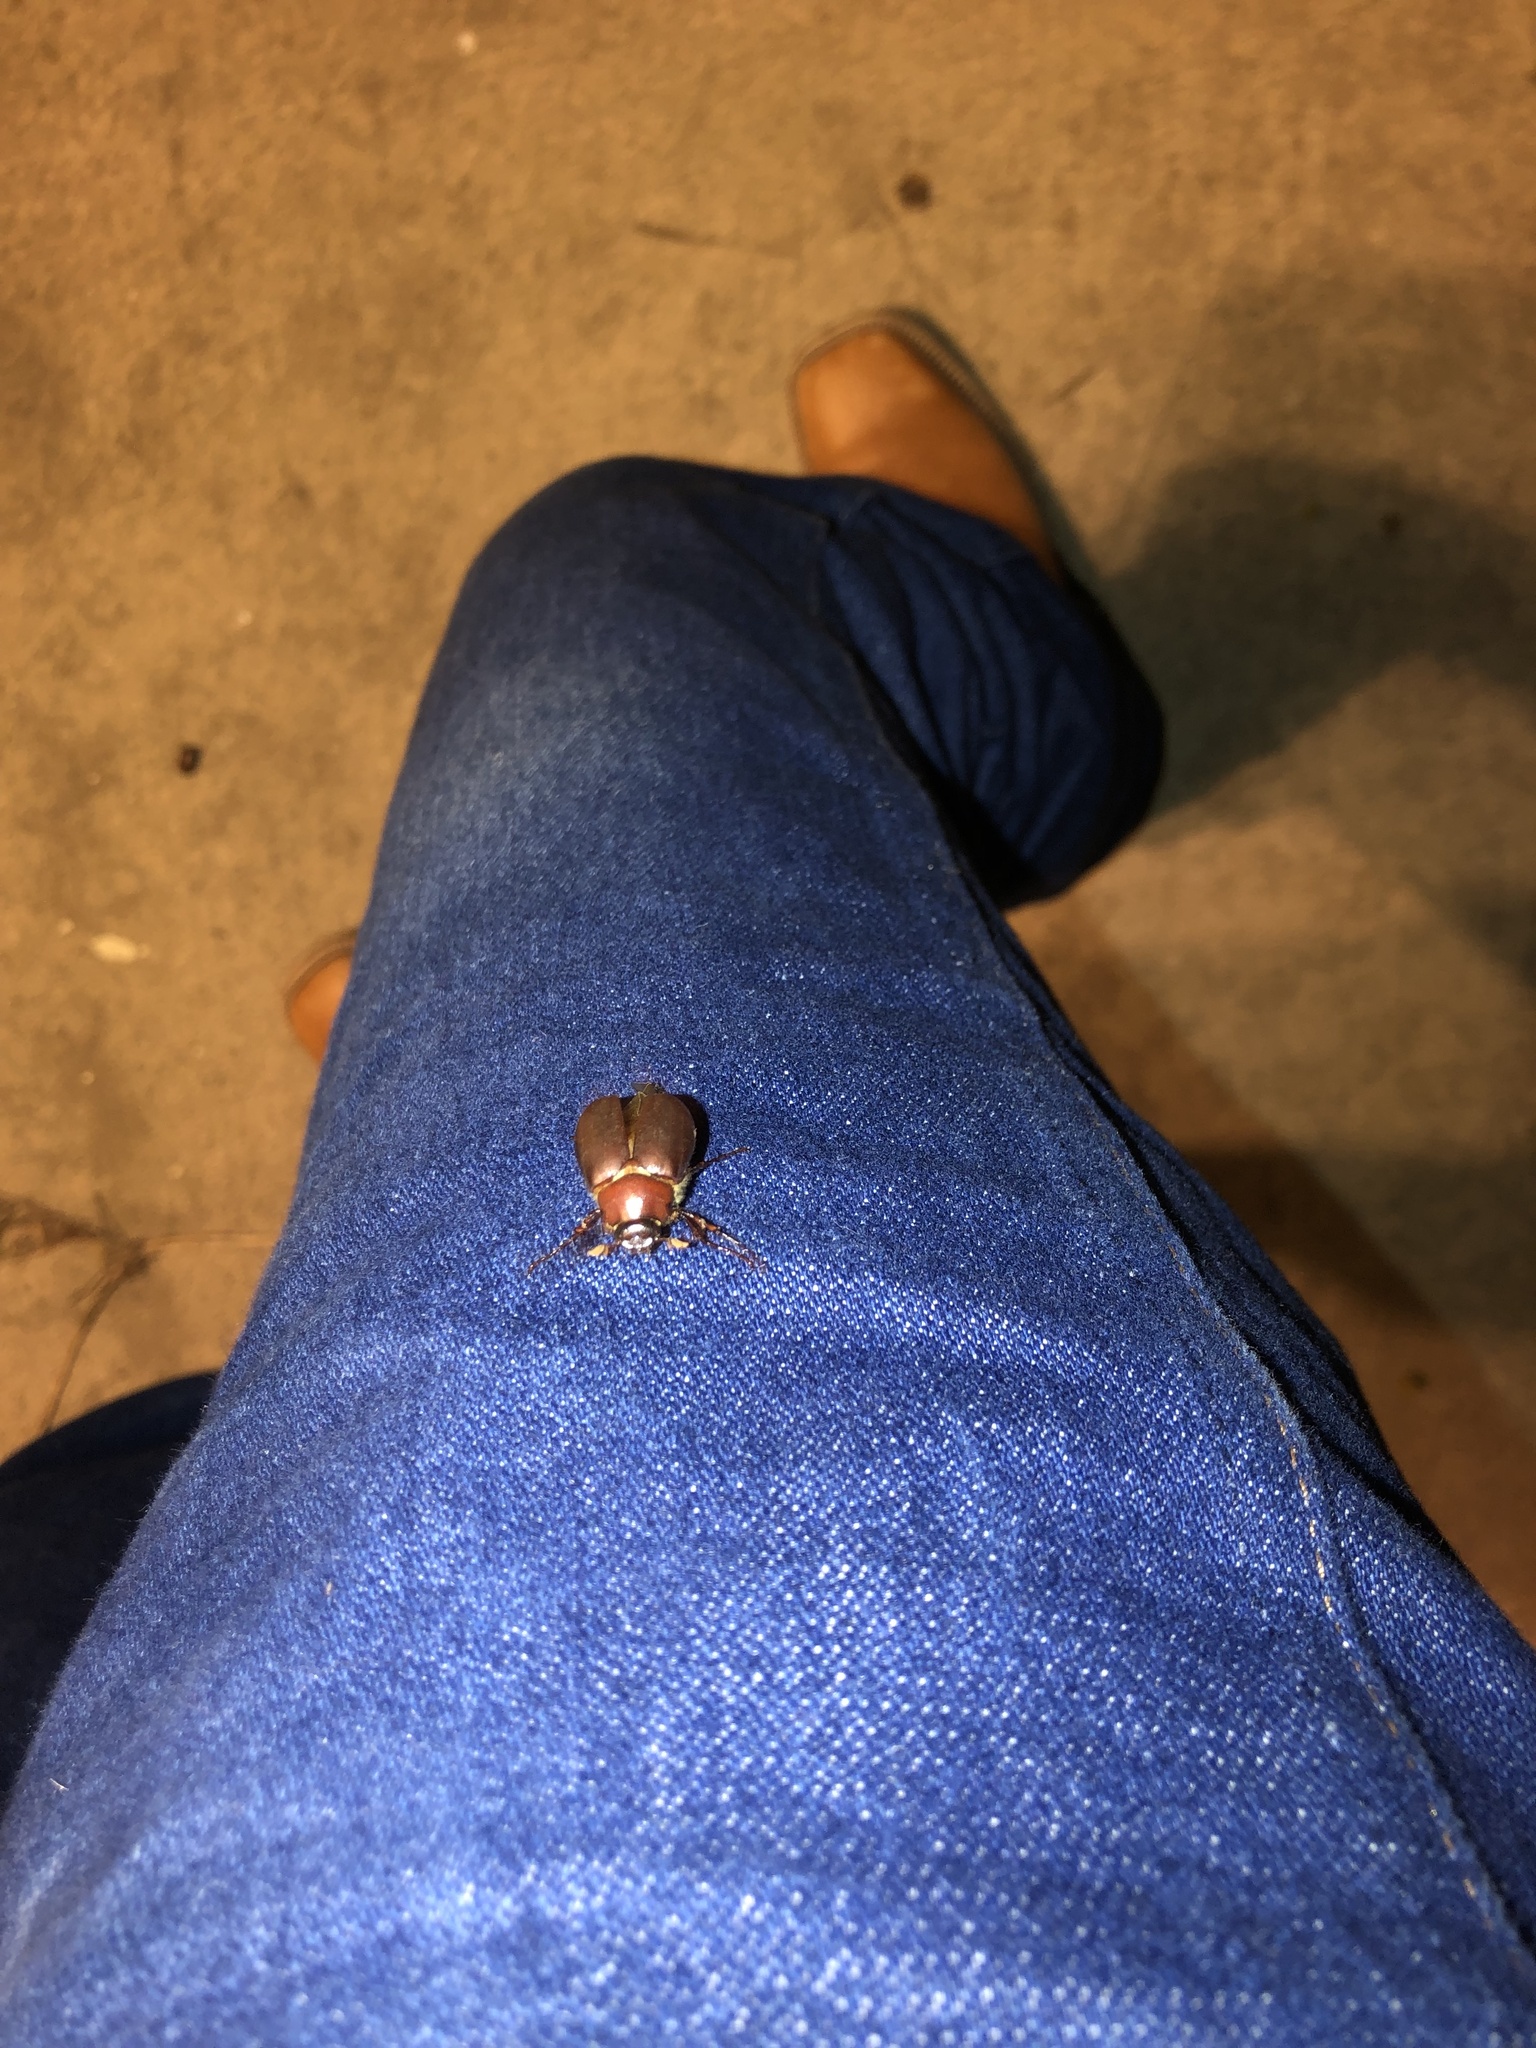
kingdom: Animalia
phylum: Arthropoda
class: Insecta
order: Coleoptera
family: Scarabaeidae
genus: Paranomala
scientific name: Paranomala flavipennis
